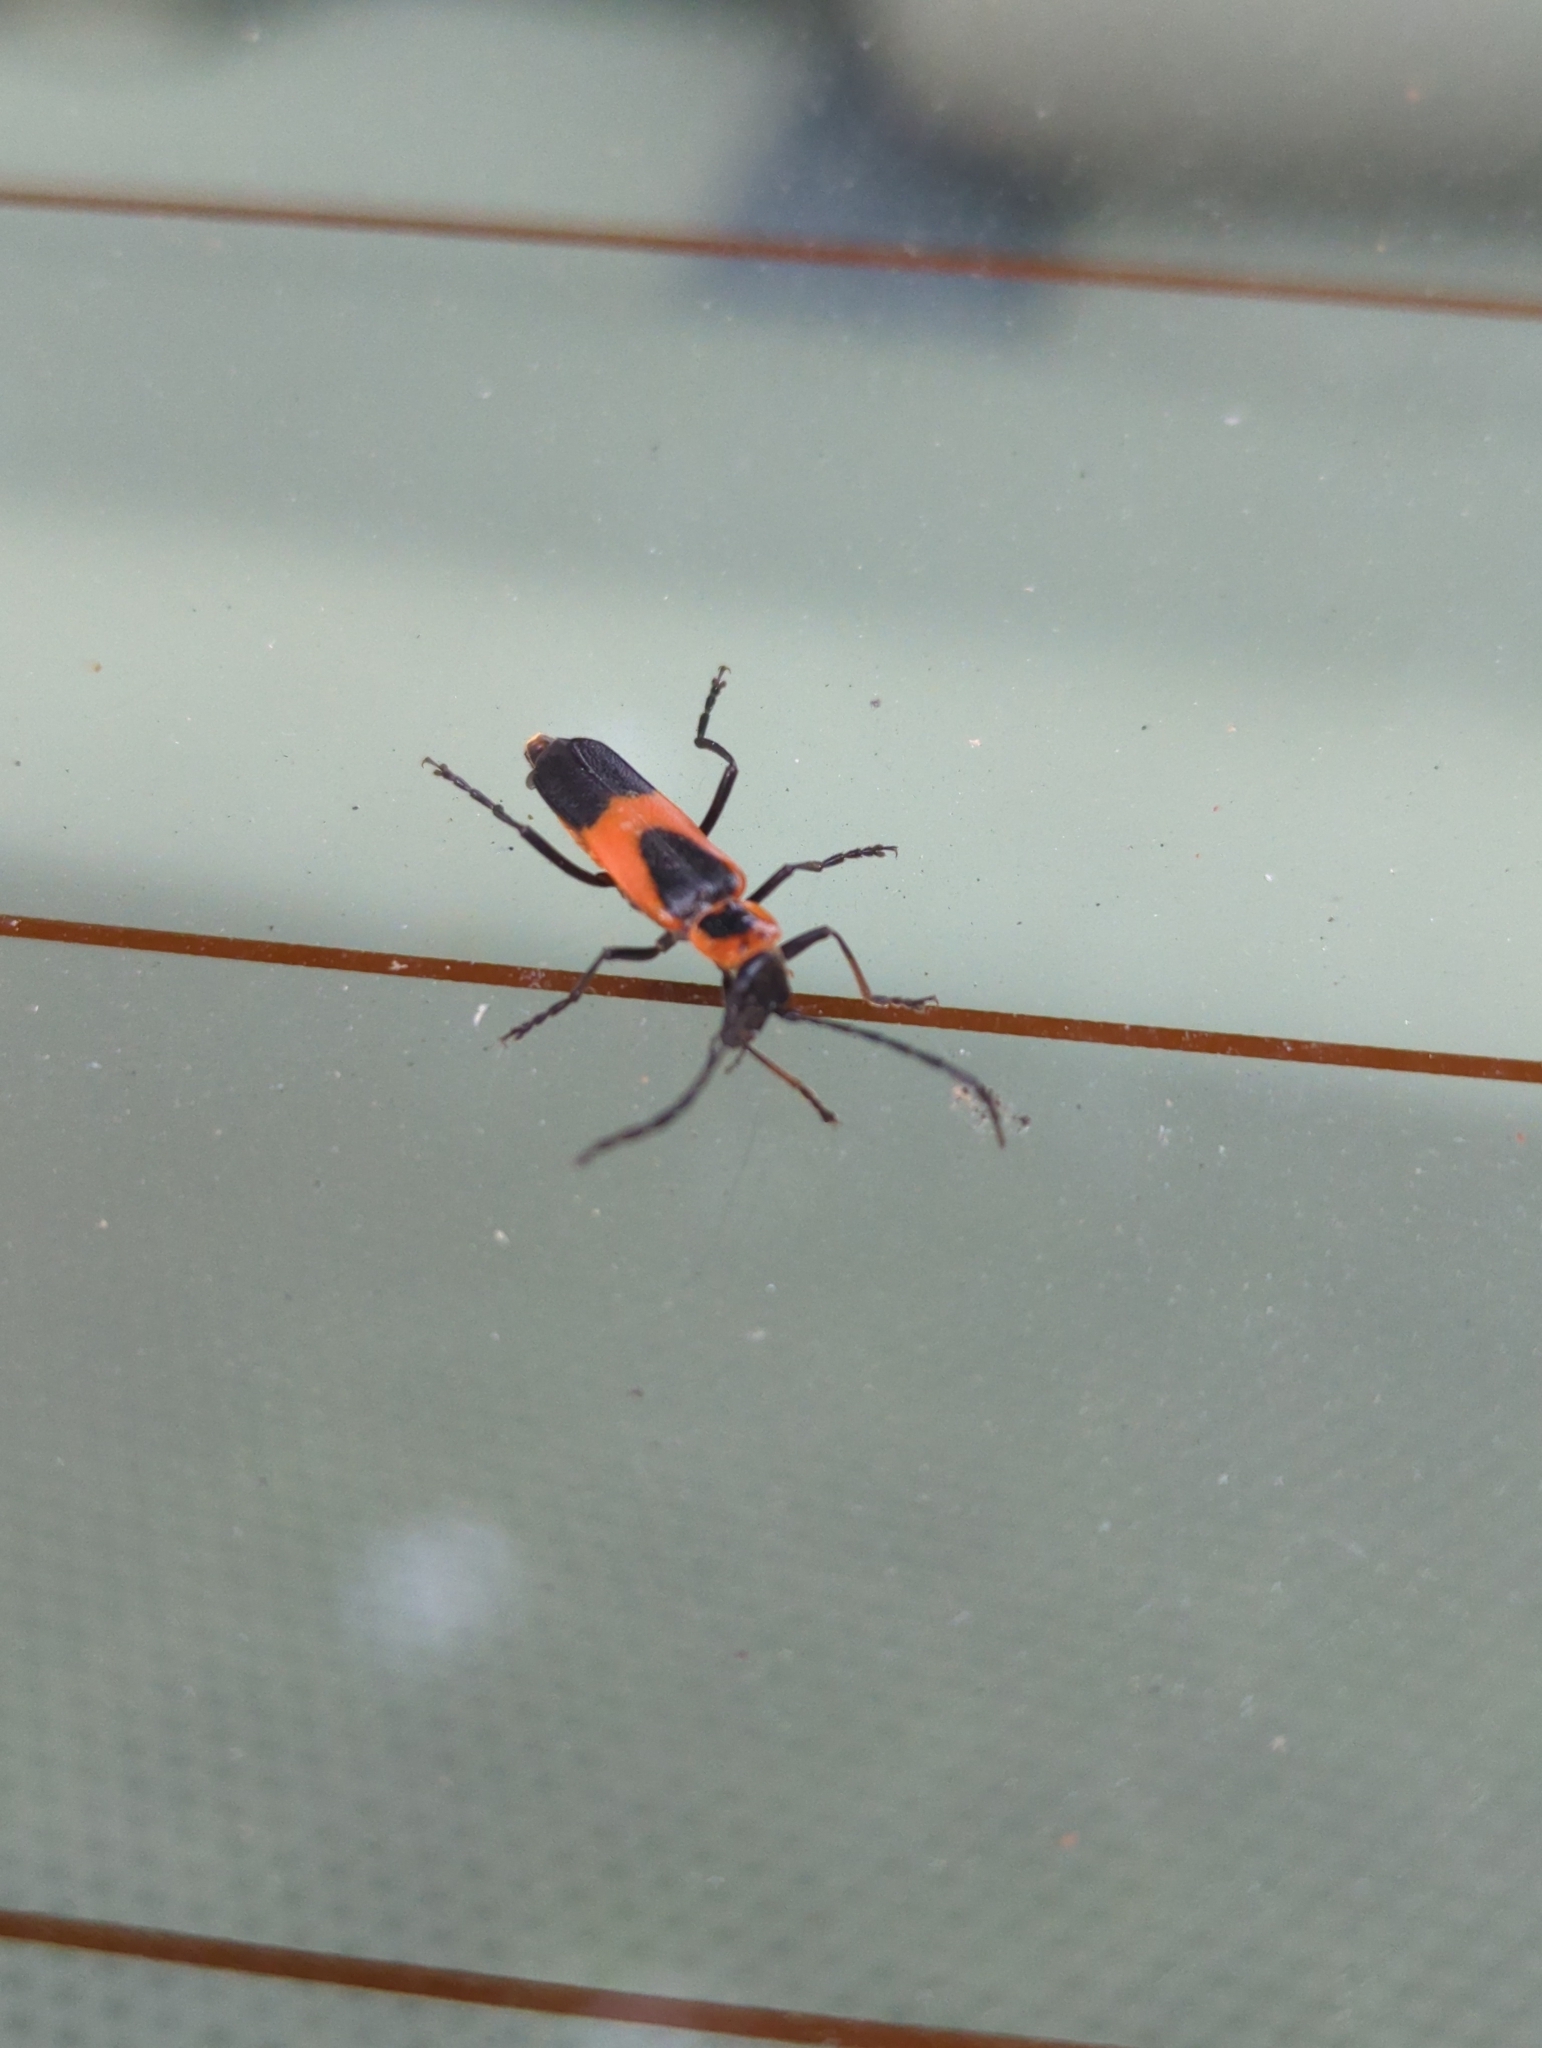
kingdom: Animalia
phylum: Arthropoda
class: Insecta
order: Coleoptera
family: Cantharidae
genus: Chauliognathus
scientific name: Chauliognathus basalis
